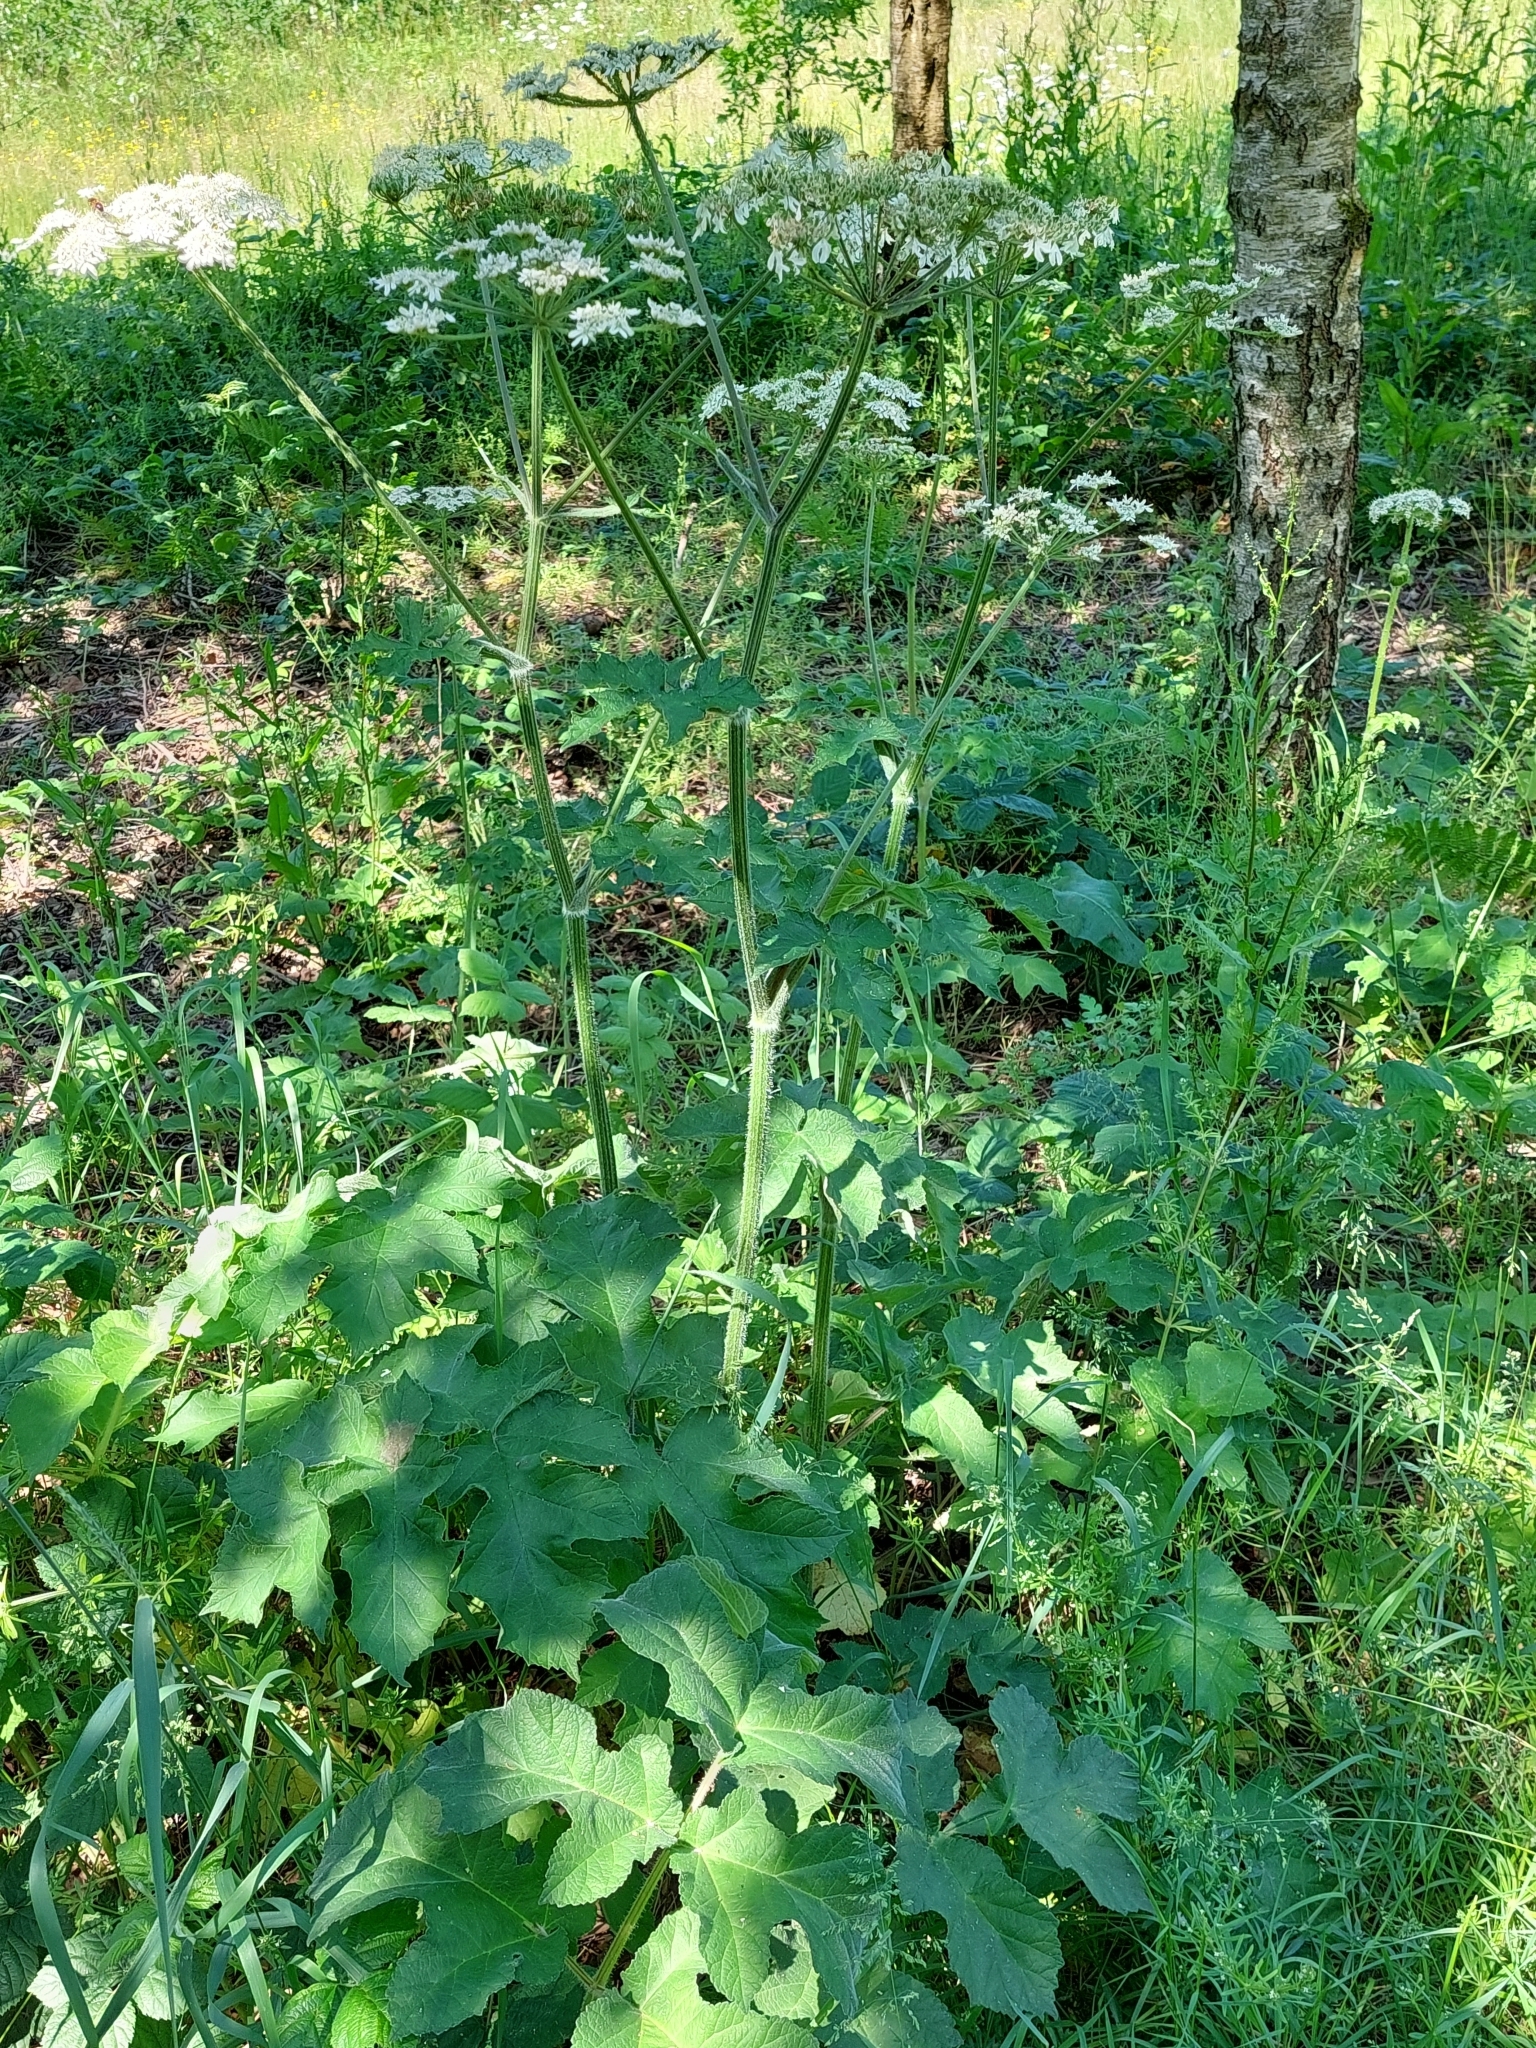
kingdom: Plantae
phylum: Tracheophyta
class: Magnoliopsida
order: Apiales
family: Apiaceae
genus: Heracleum
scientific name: Heracleum sphondylium
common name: Hogweed
